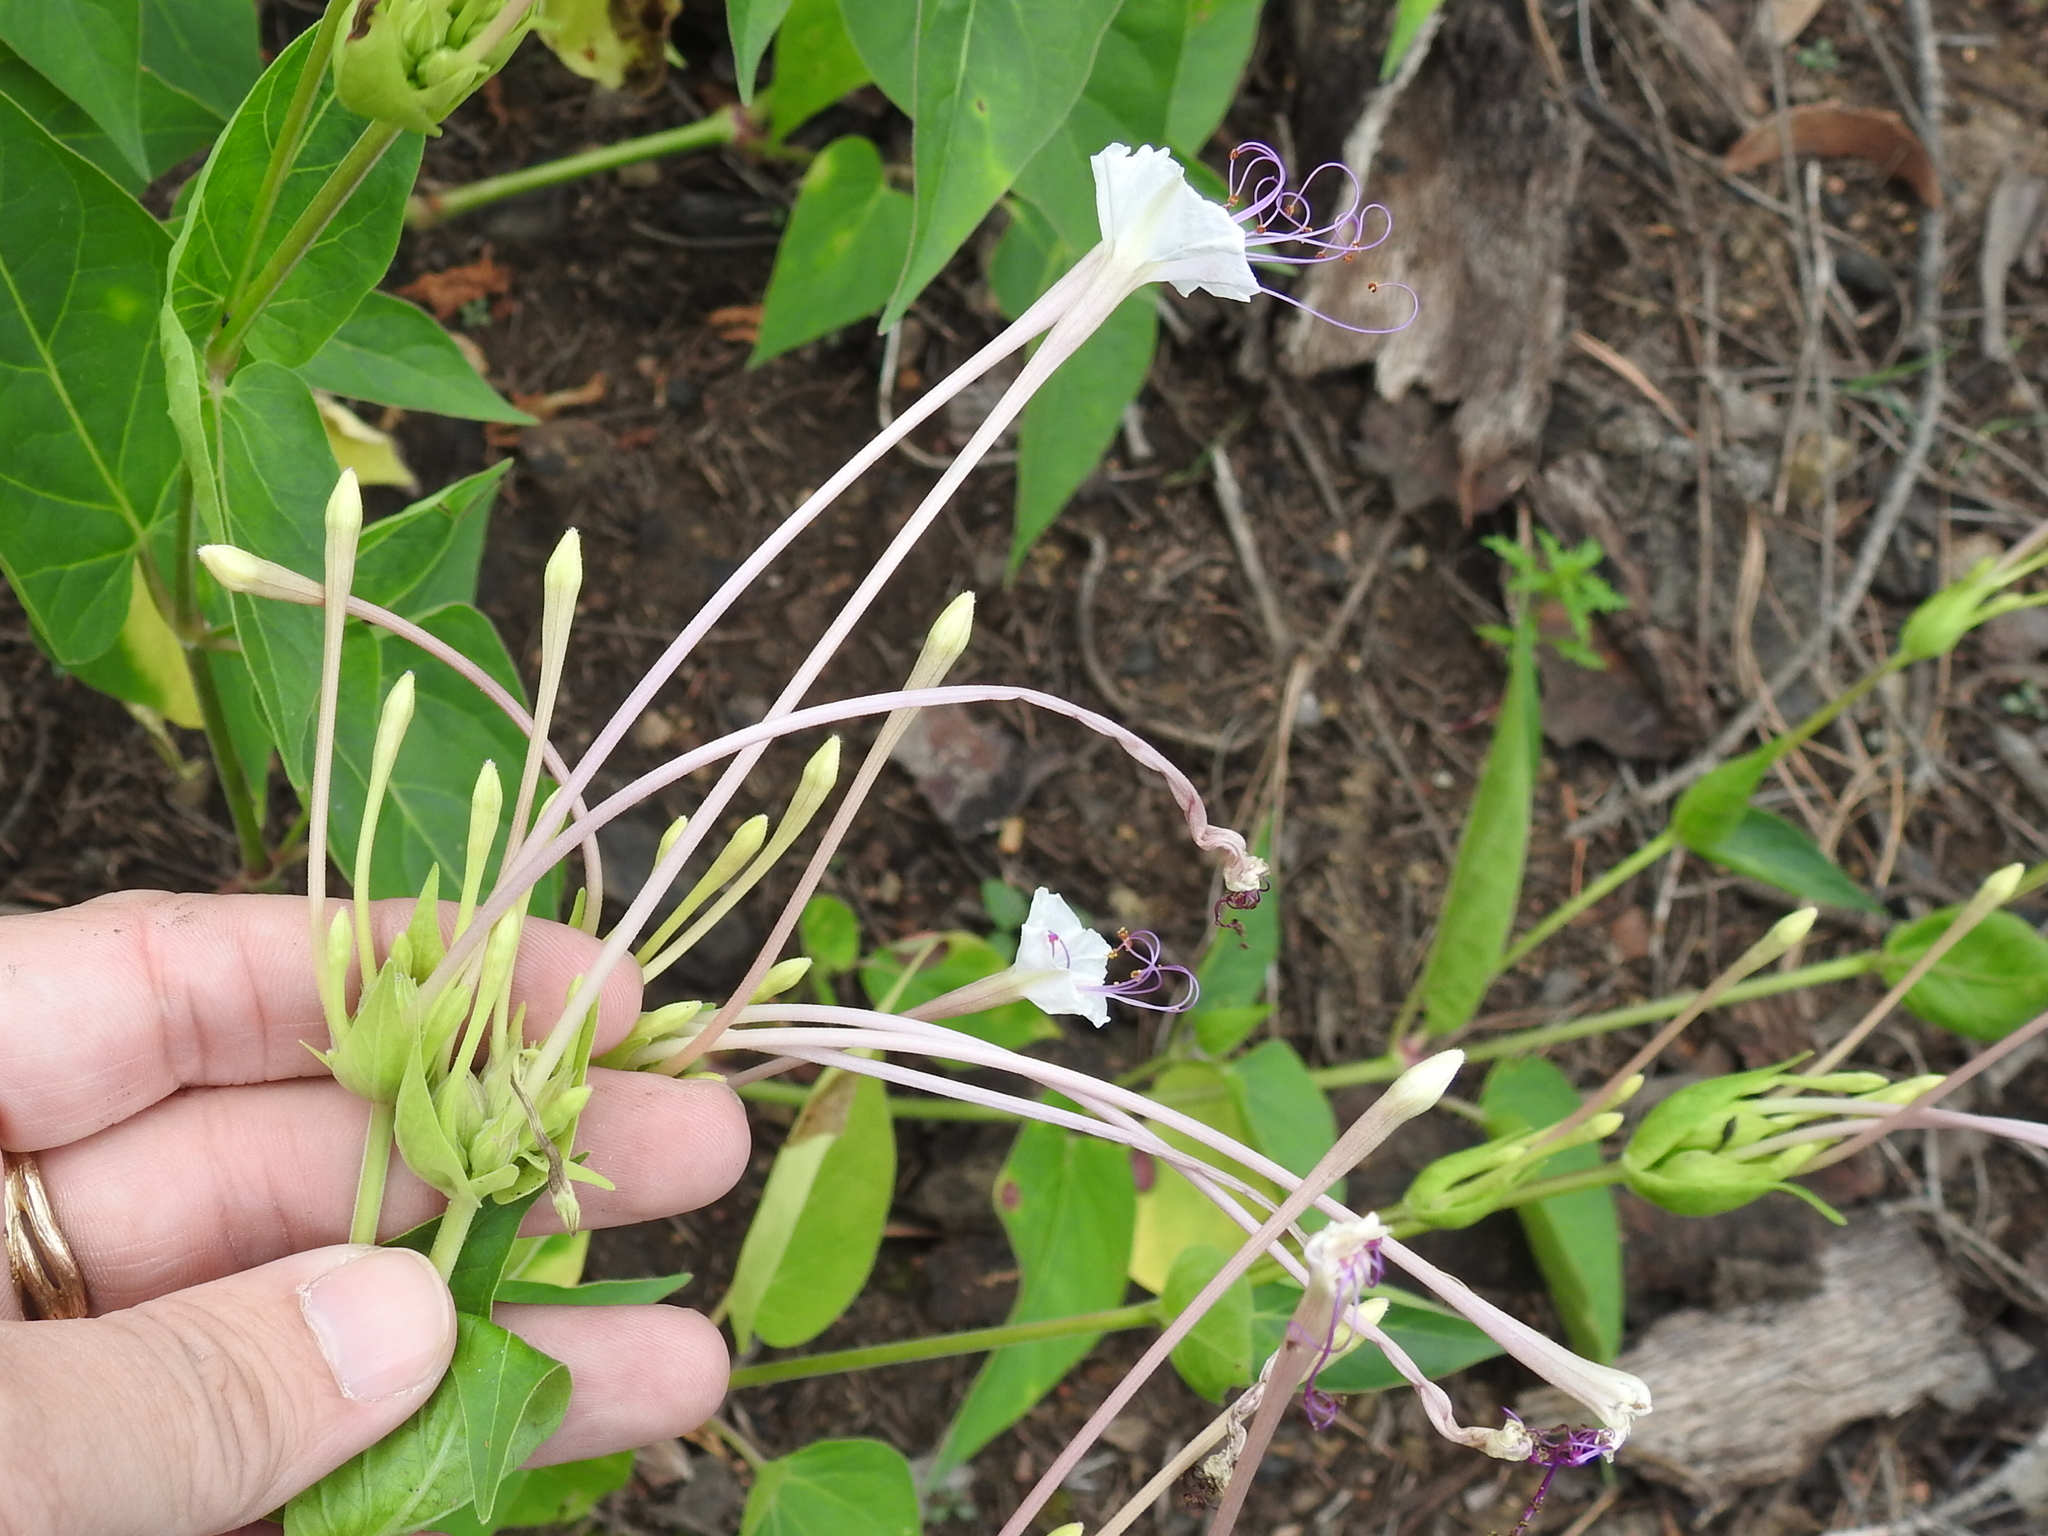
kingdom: Plantae
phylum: Tracheophyta
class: Magnoliopsida
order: Caryophyllales
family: Nyctaginaceae
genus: Mirabilis
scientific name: Mirabilis longiflora
